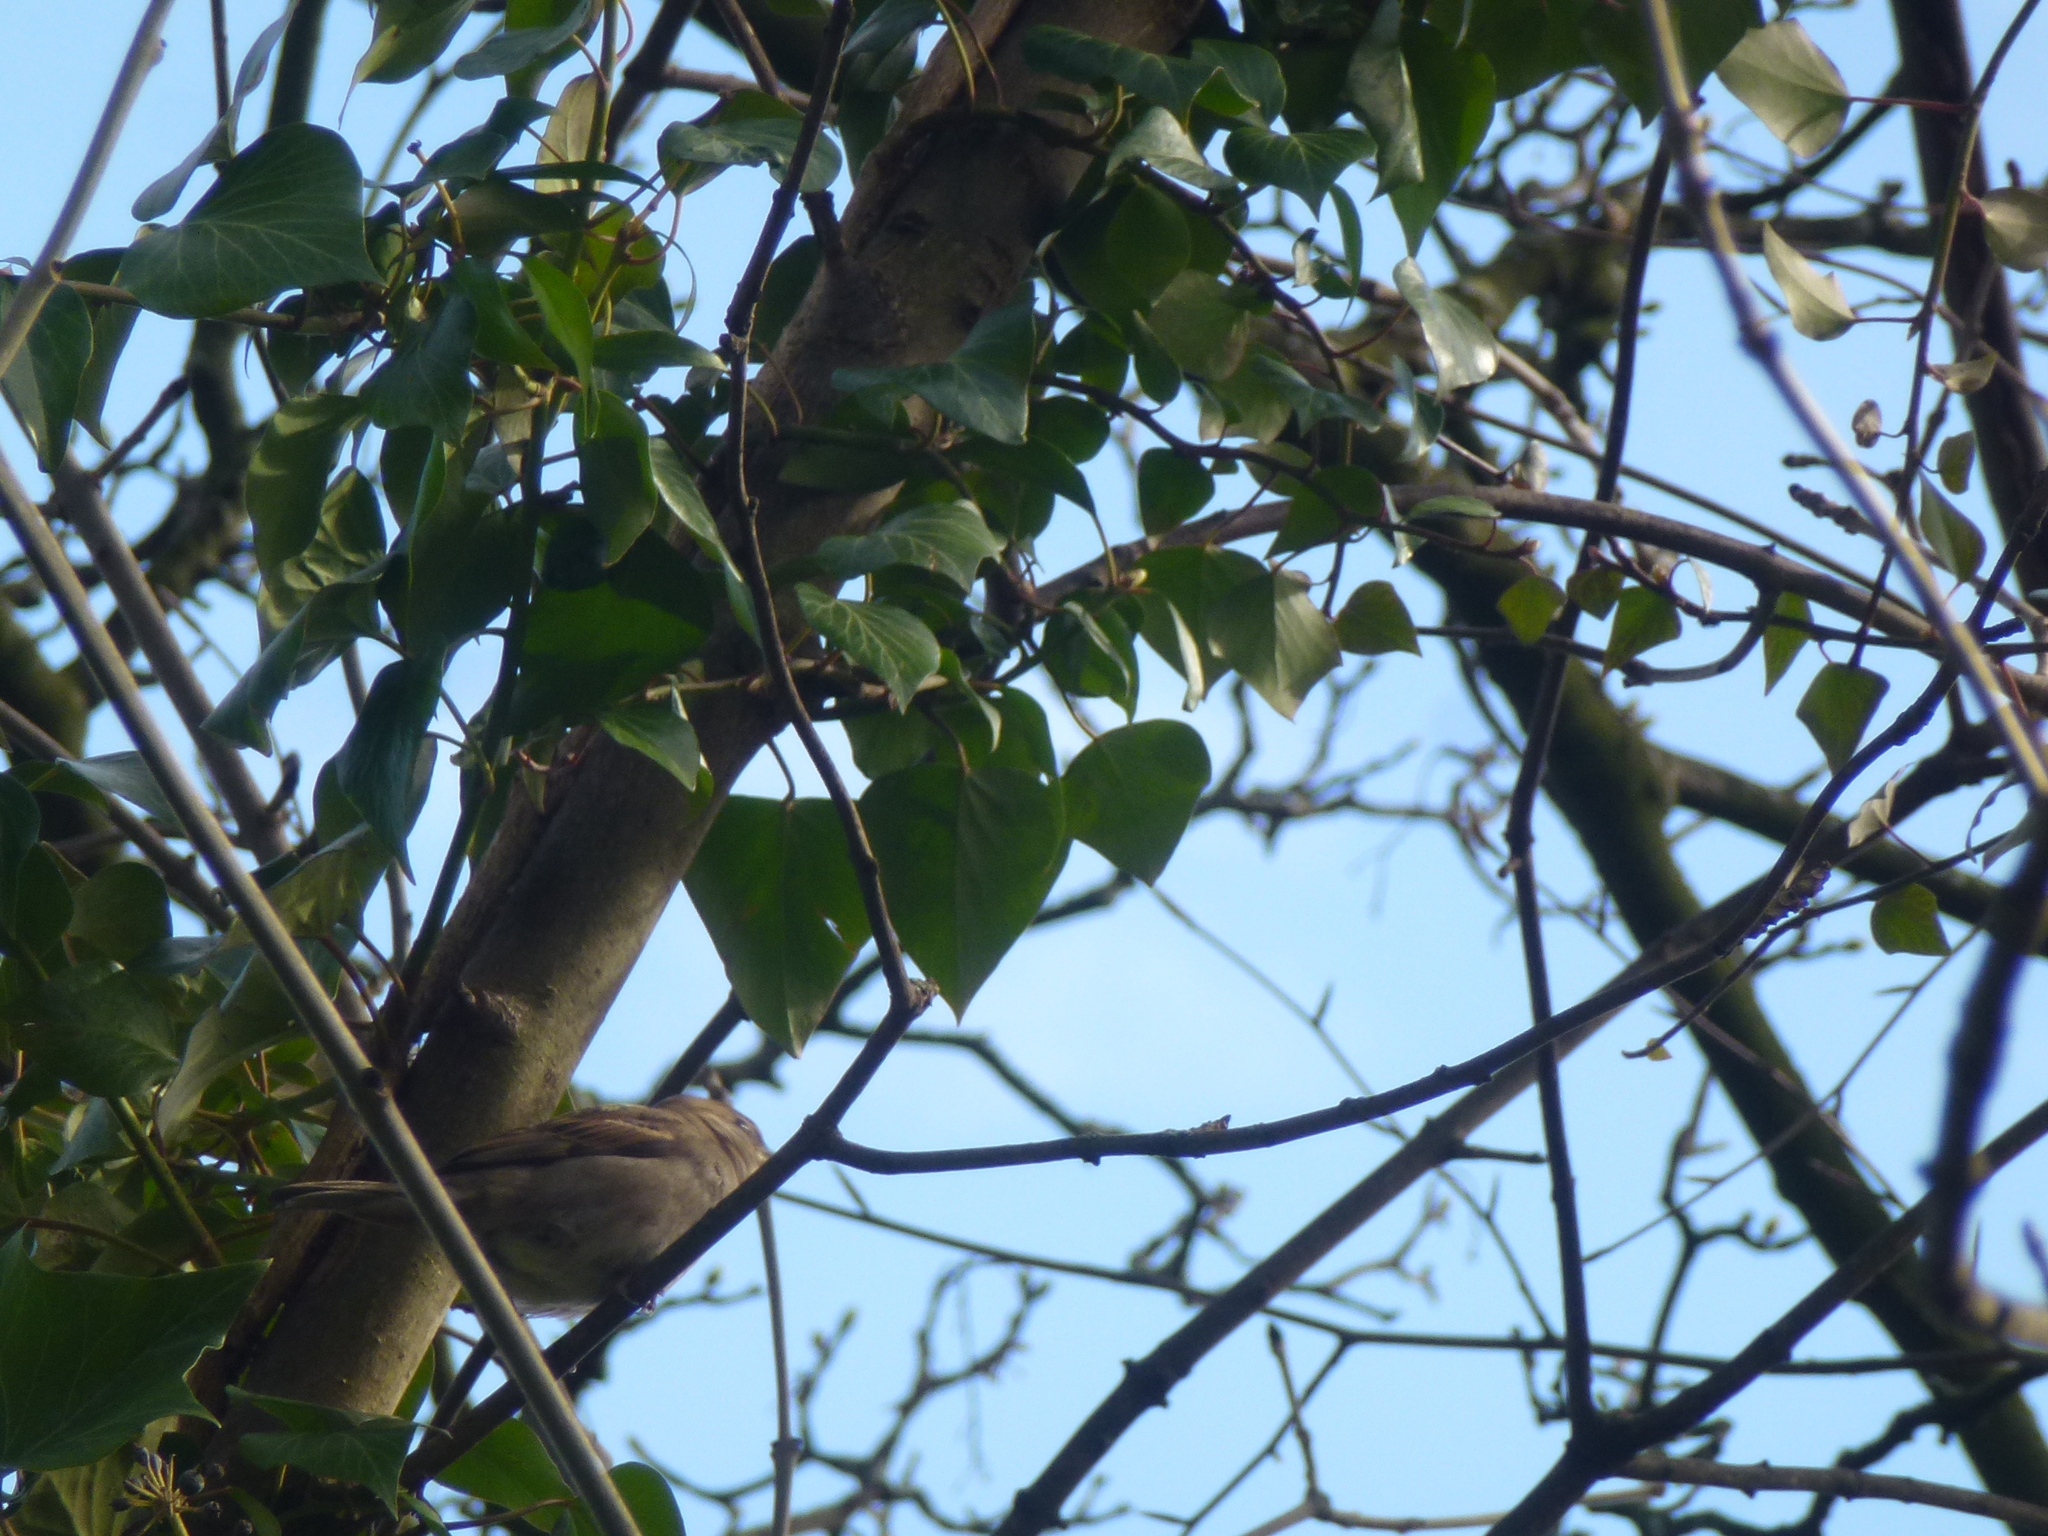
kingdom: Animalia
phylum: Chordata
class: Aves
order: Passeriformes
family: Passeridae
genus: Passer
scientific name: Passer domesticus
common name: House sparrow
